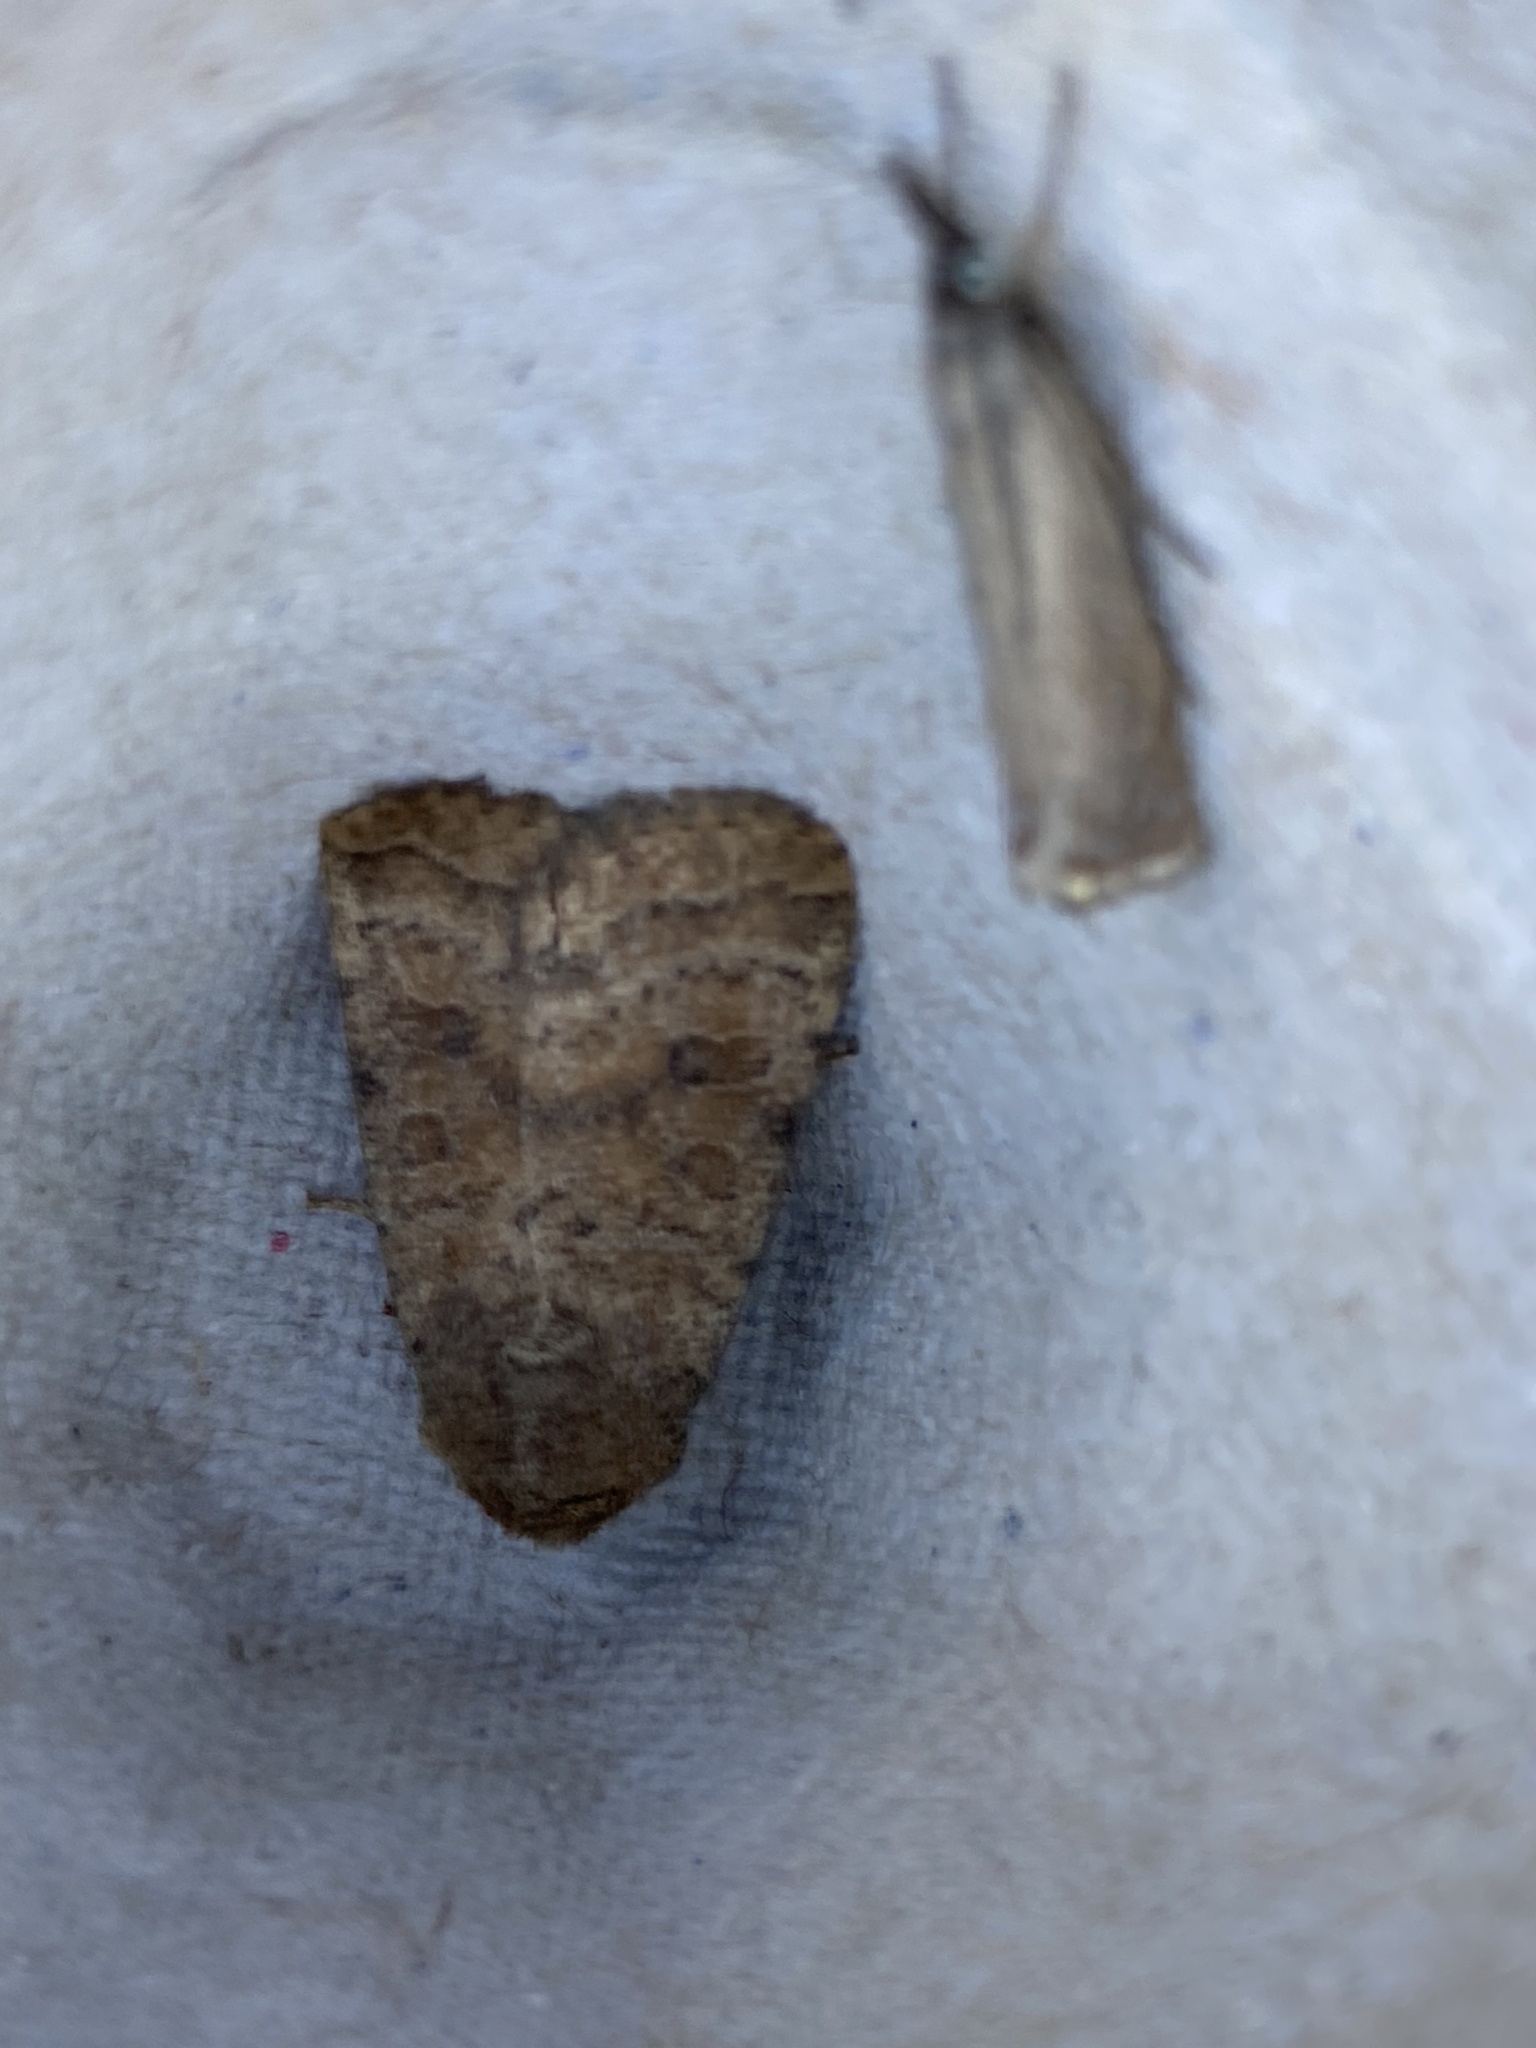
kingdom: Animalia
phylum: Arthropoda
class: Insecta
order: Lepidoptera
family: Noctuidae
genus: Hoplodrina
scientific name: Hoplodrina octogenaria
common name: Uncertain
